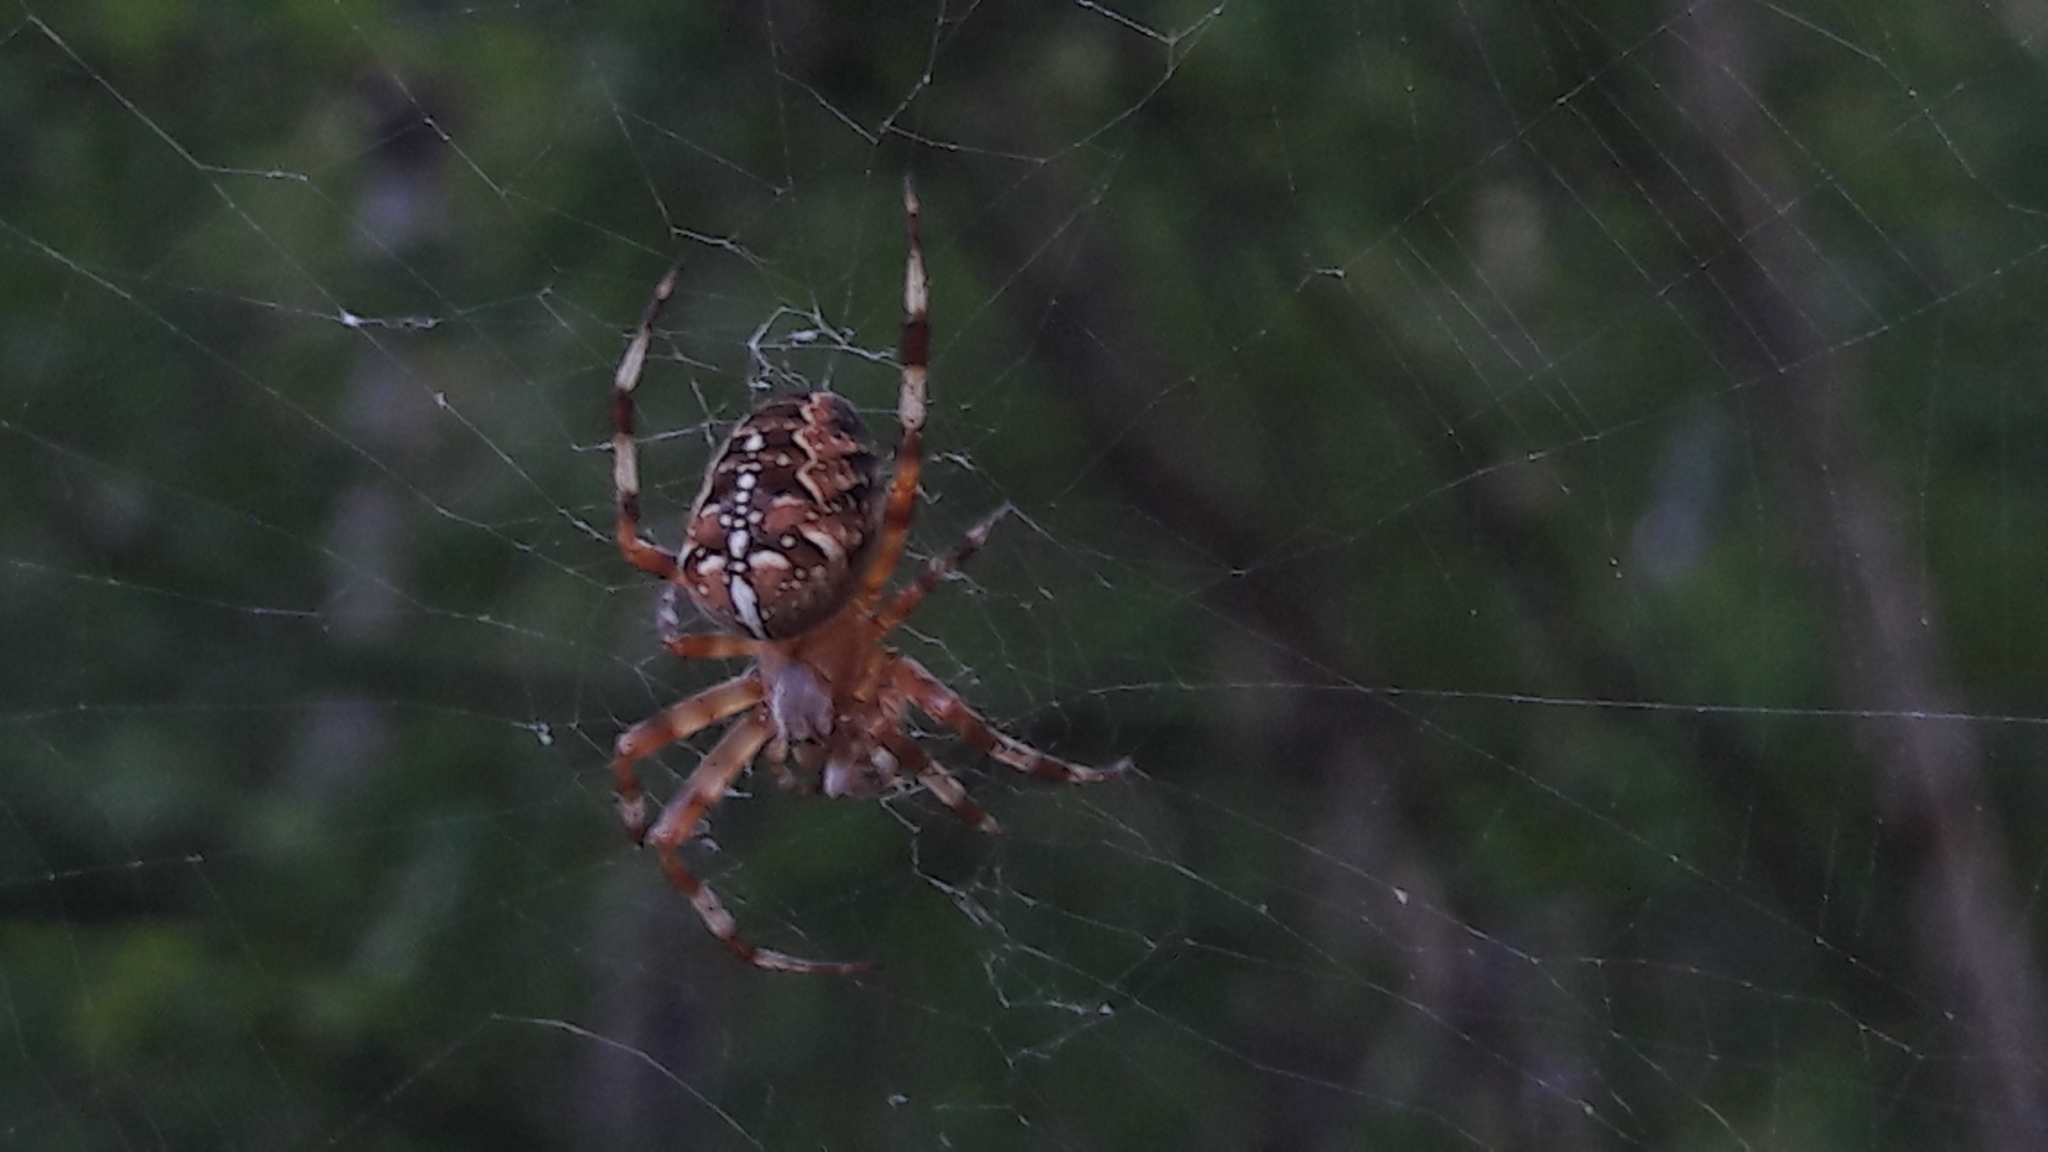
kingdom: Animalia
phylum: Arthropoda
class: Arachnida
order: Araneae
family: Araneidae
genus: Araneus
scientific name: Araneus diadematus
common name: Cross orbweaver
